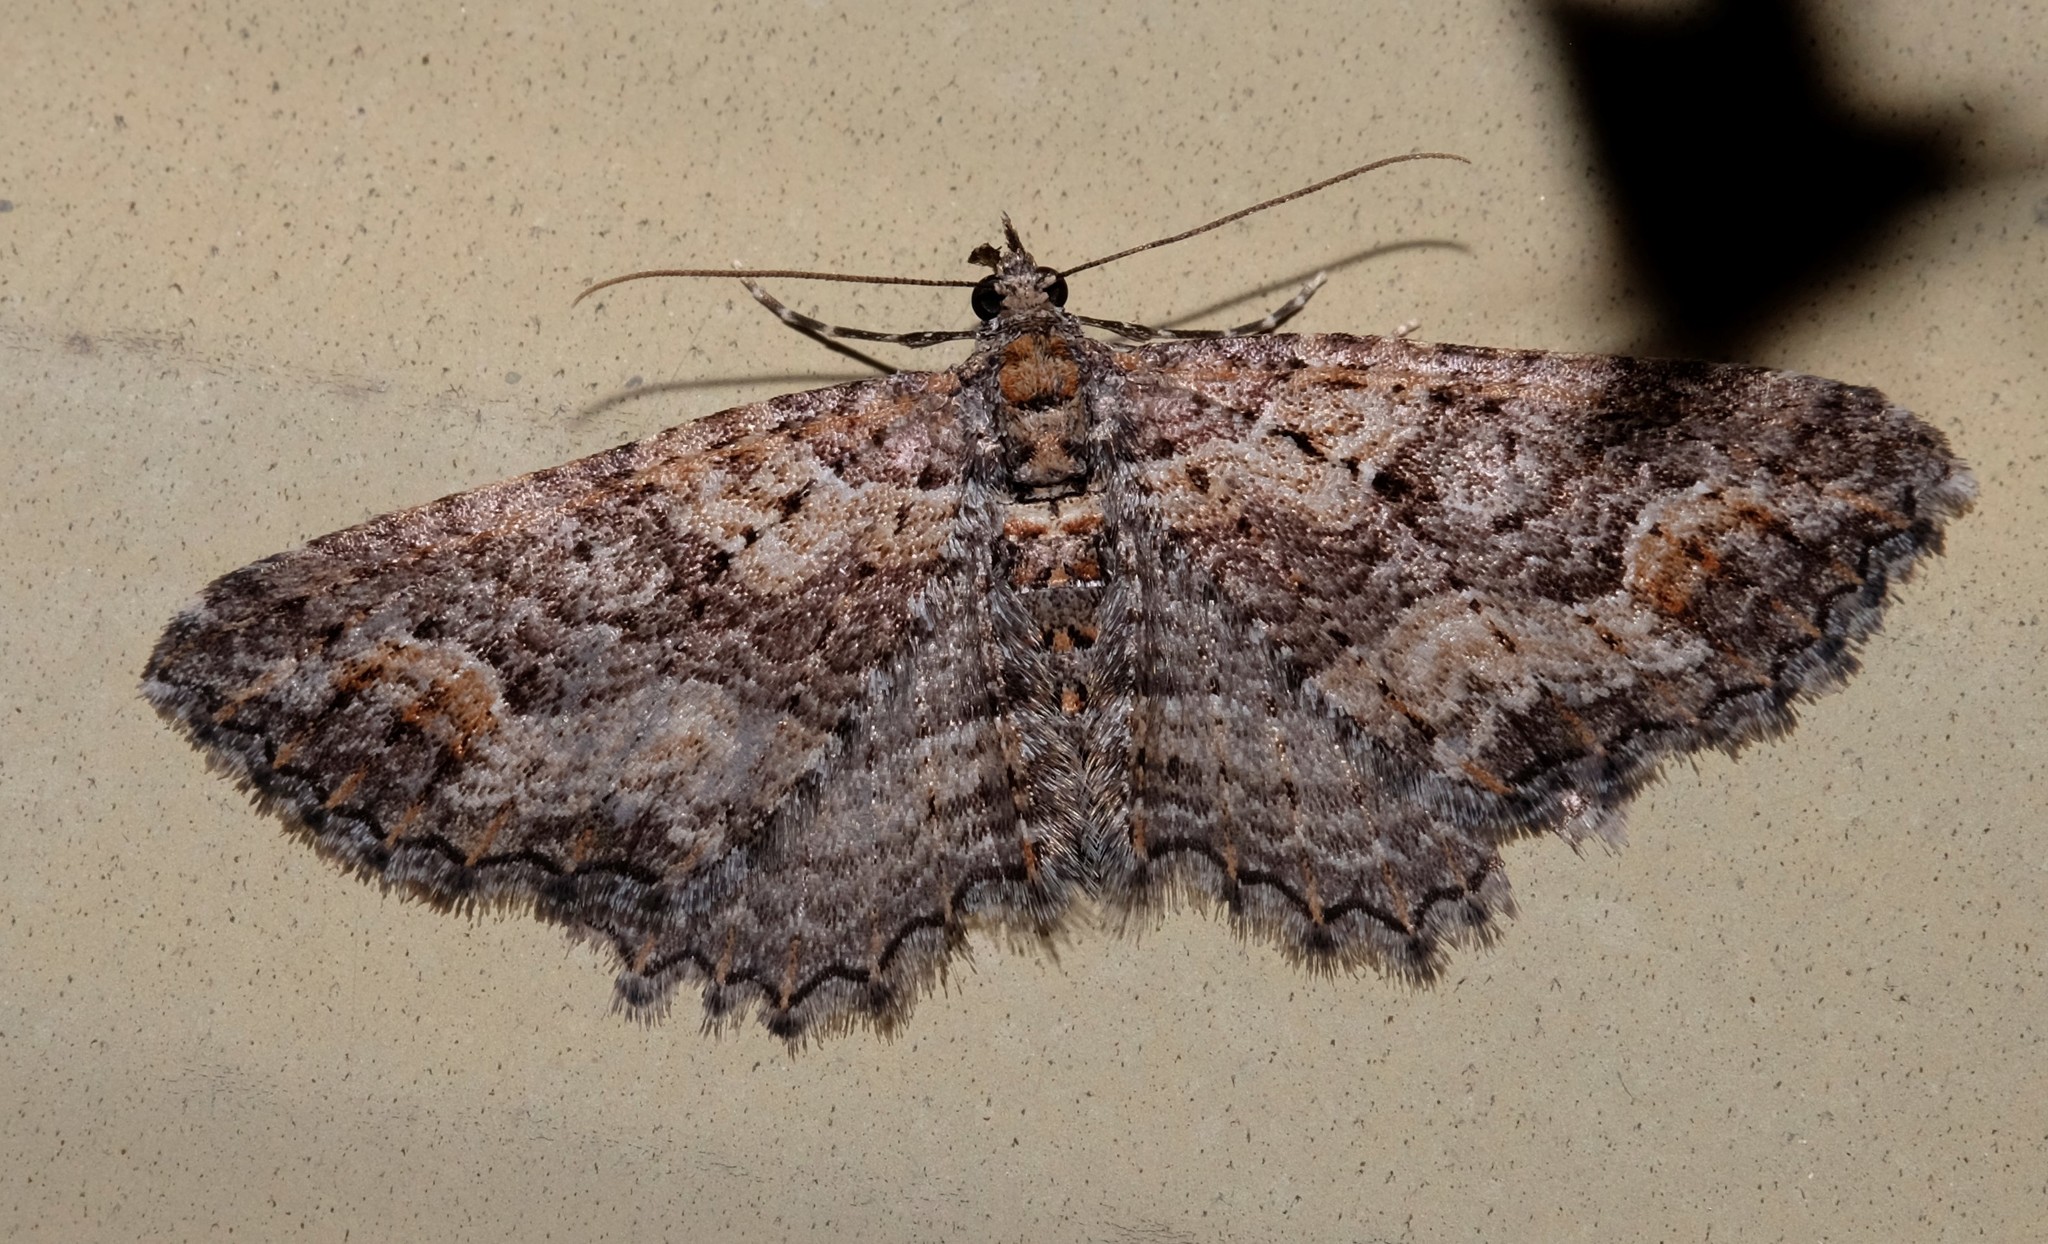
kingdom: Animalia
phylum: Arthropoda
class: Insecta
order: Lepidoptera
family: Geometridae
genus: Chrysolarentia
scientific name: Chrysolarentia plesia
